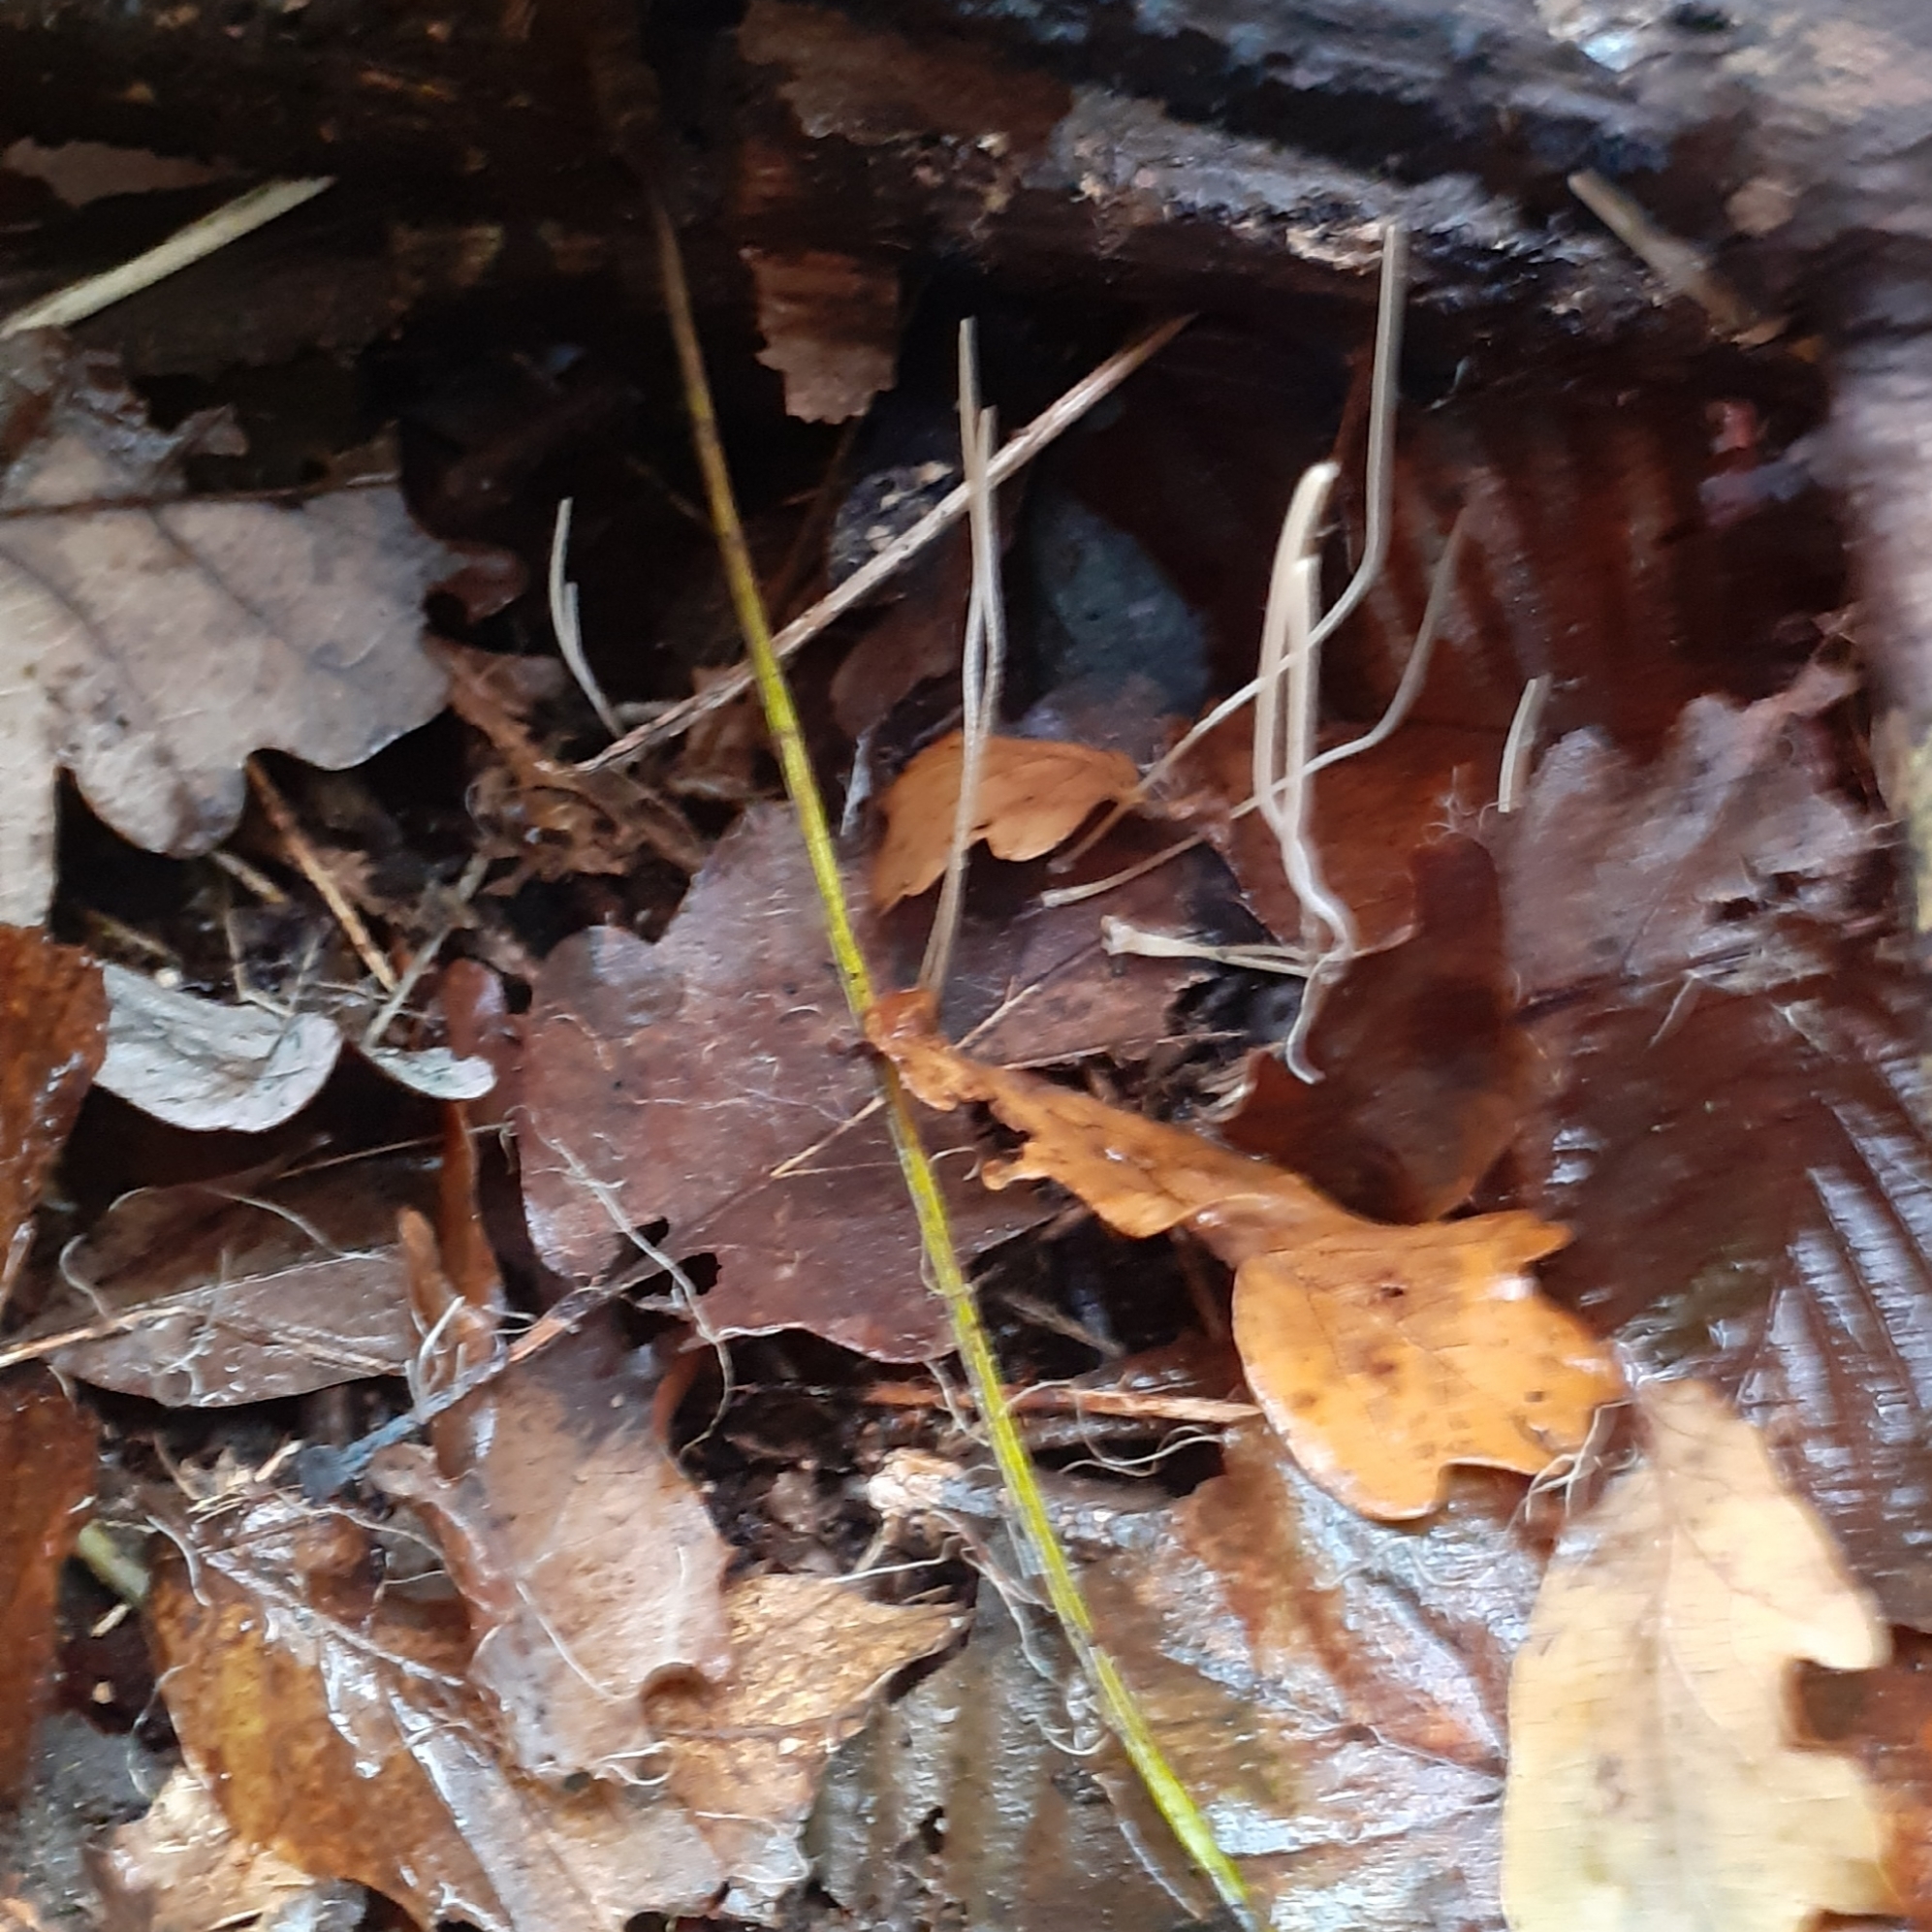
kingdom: Fungi
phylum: Basidiomycota
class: Agaricomycetes
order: Agaricales
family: Typhulaceae
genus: Typhula
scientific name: Typhula juncea
